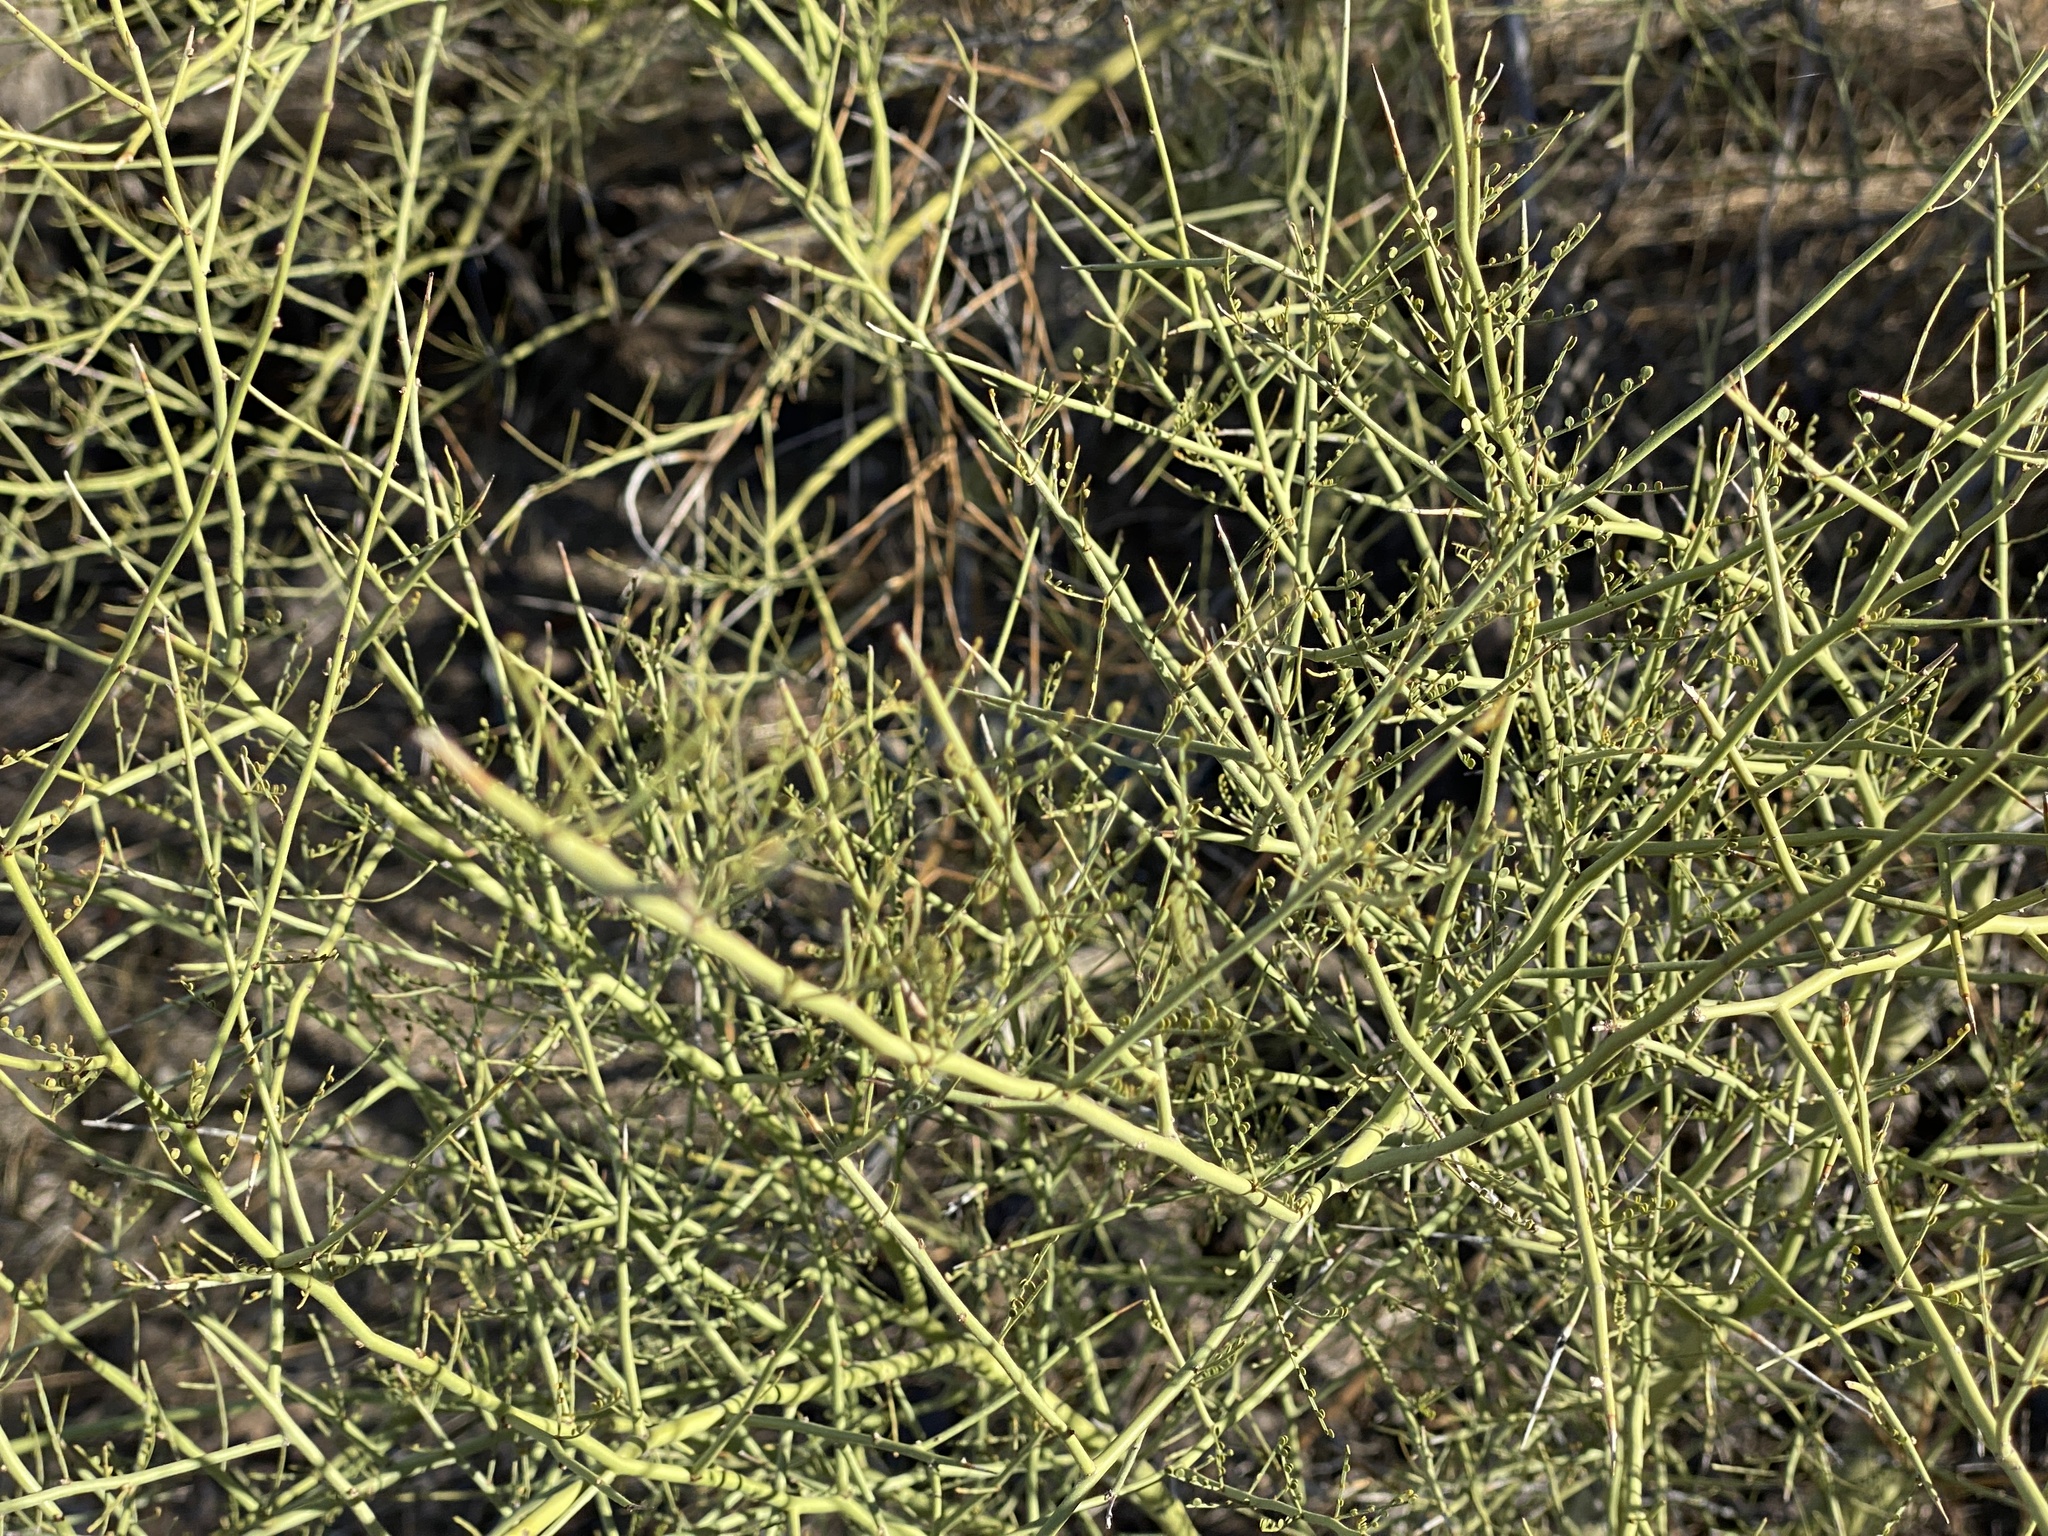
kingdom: Plantae
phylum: Tracheophyta
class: Magnoliopsida
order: Fabales
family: Fabaceae
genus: Parkinsonia
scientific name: Parkinsonia microphylla
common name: Yellow paloverde
